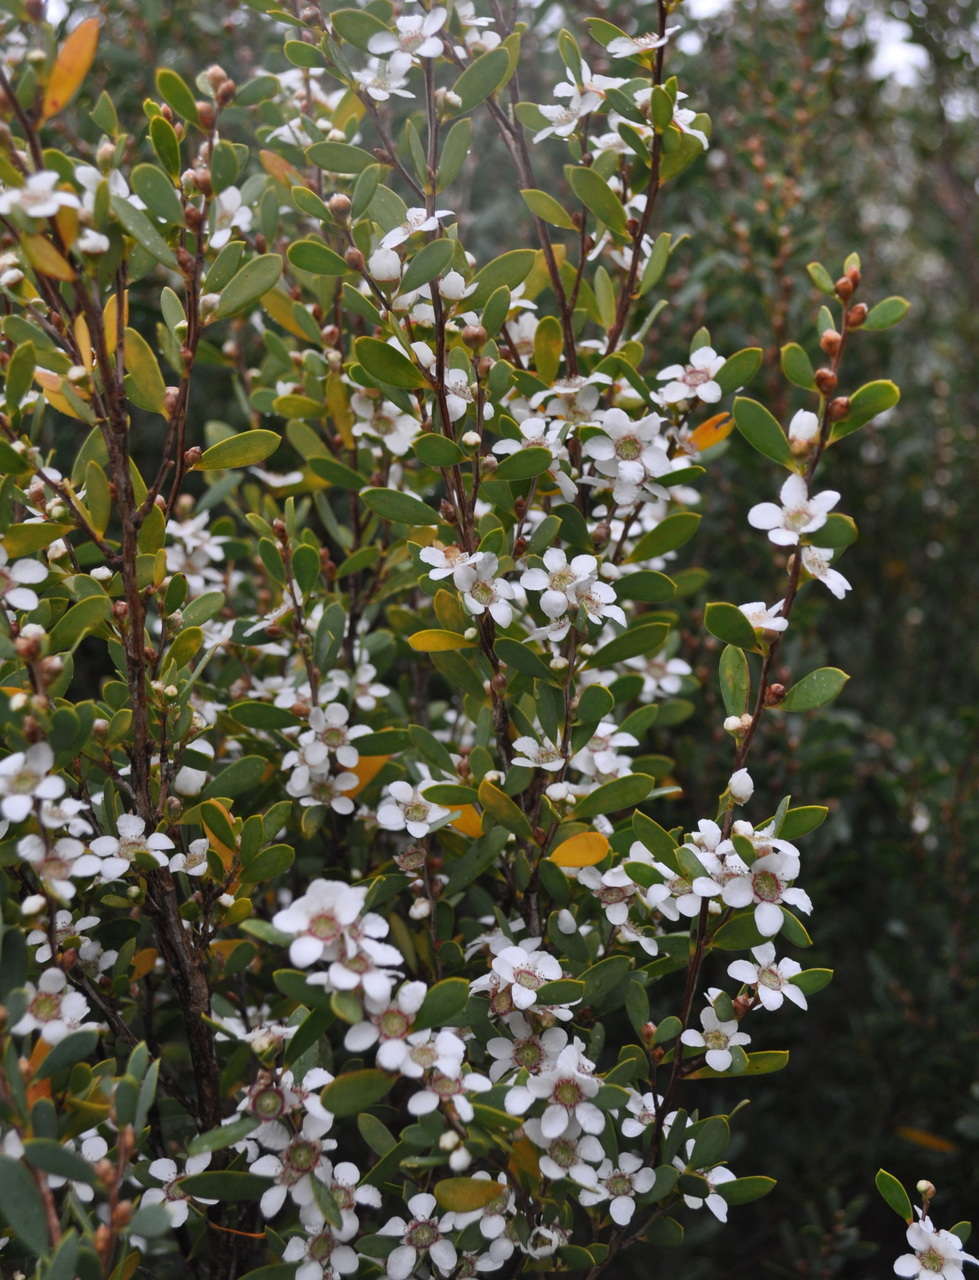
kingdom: Plantae
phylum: Tracheophyta
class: Magnoliopsida
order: Myrtales
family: Myrtaceae
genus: Leptospermum
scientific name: Leptospermum laevigatum
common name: Australian teatree
